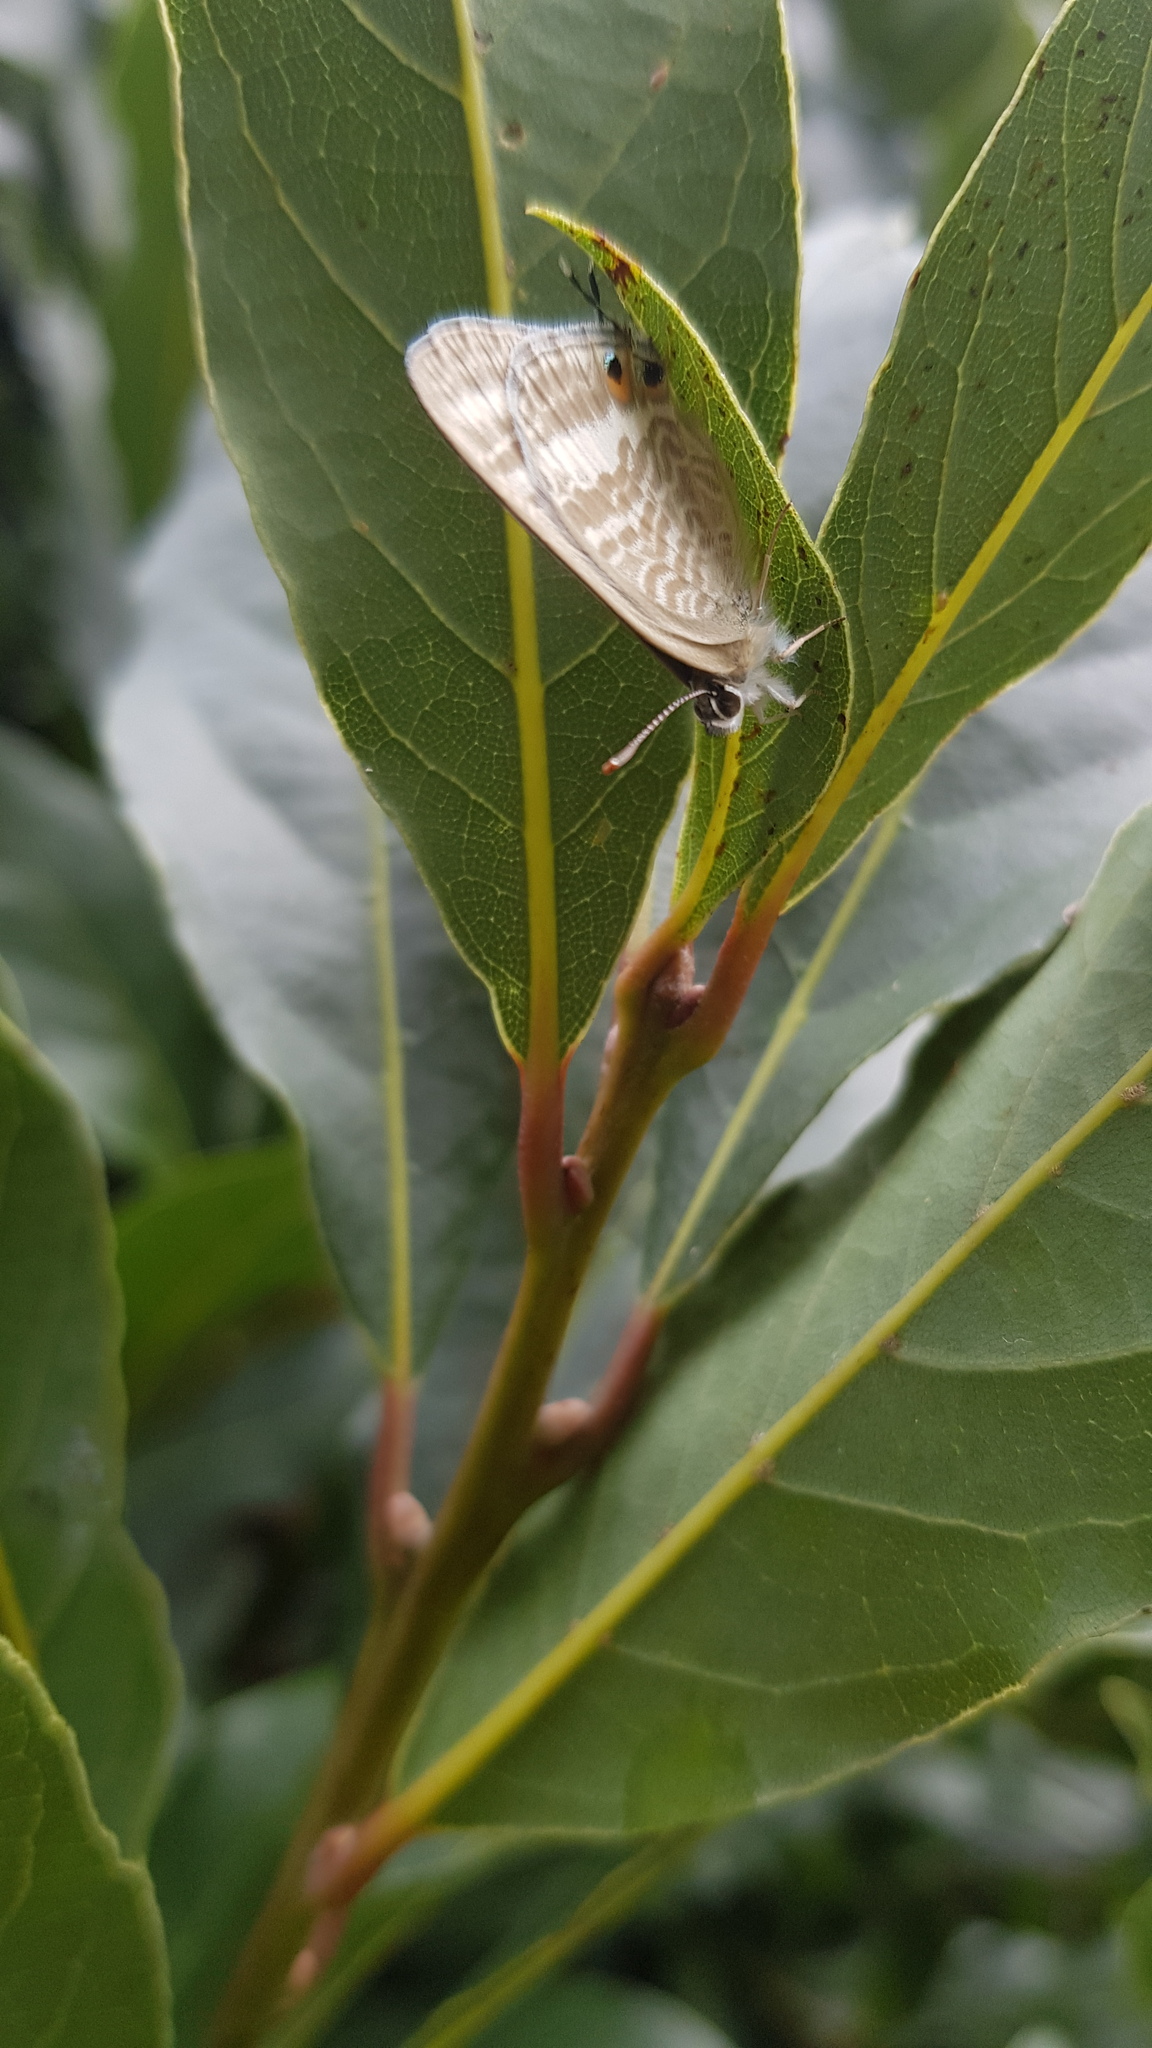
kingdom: Animalia
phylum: Arthropoda
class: Insecta
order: Lepidoptera
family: Lycaenidae
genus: Lampides
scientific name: Lampides boeticus
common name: Long-tailed blue
